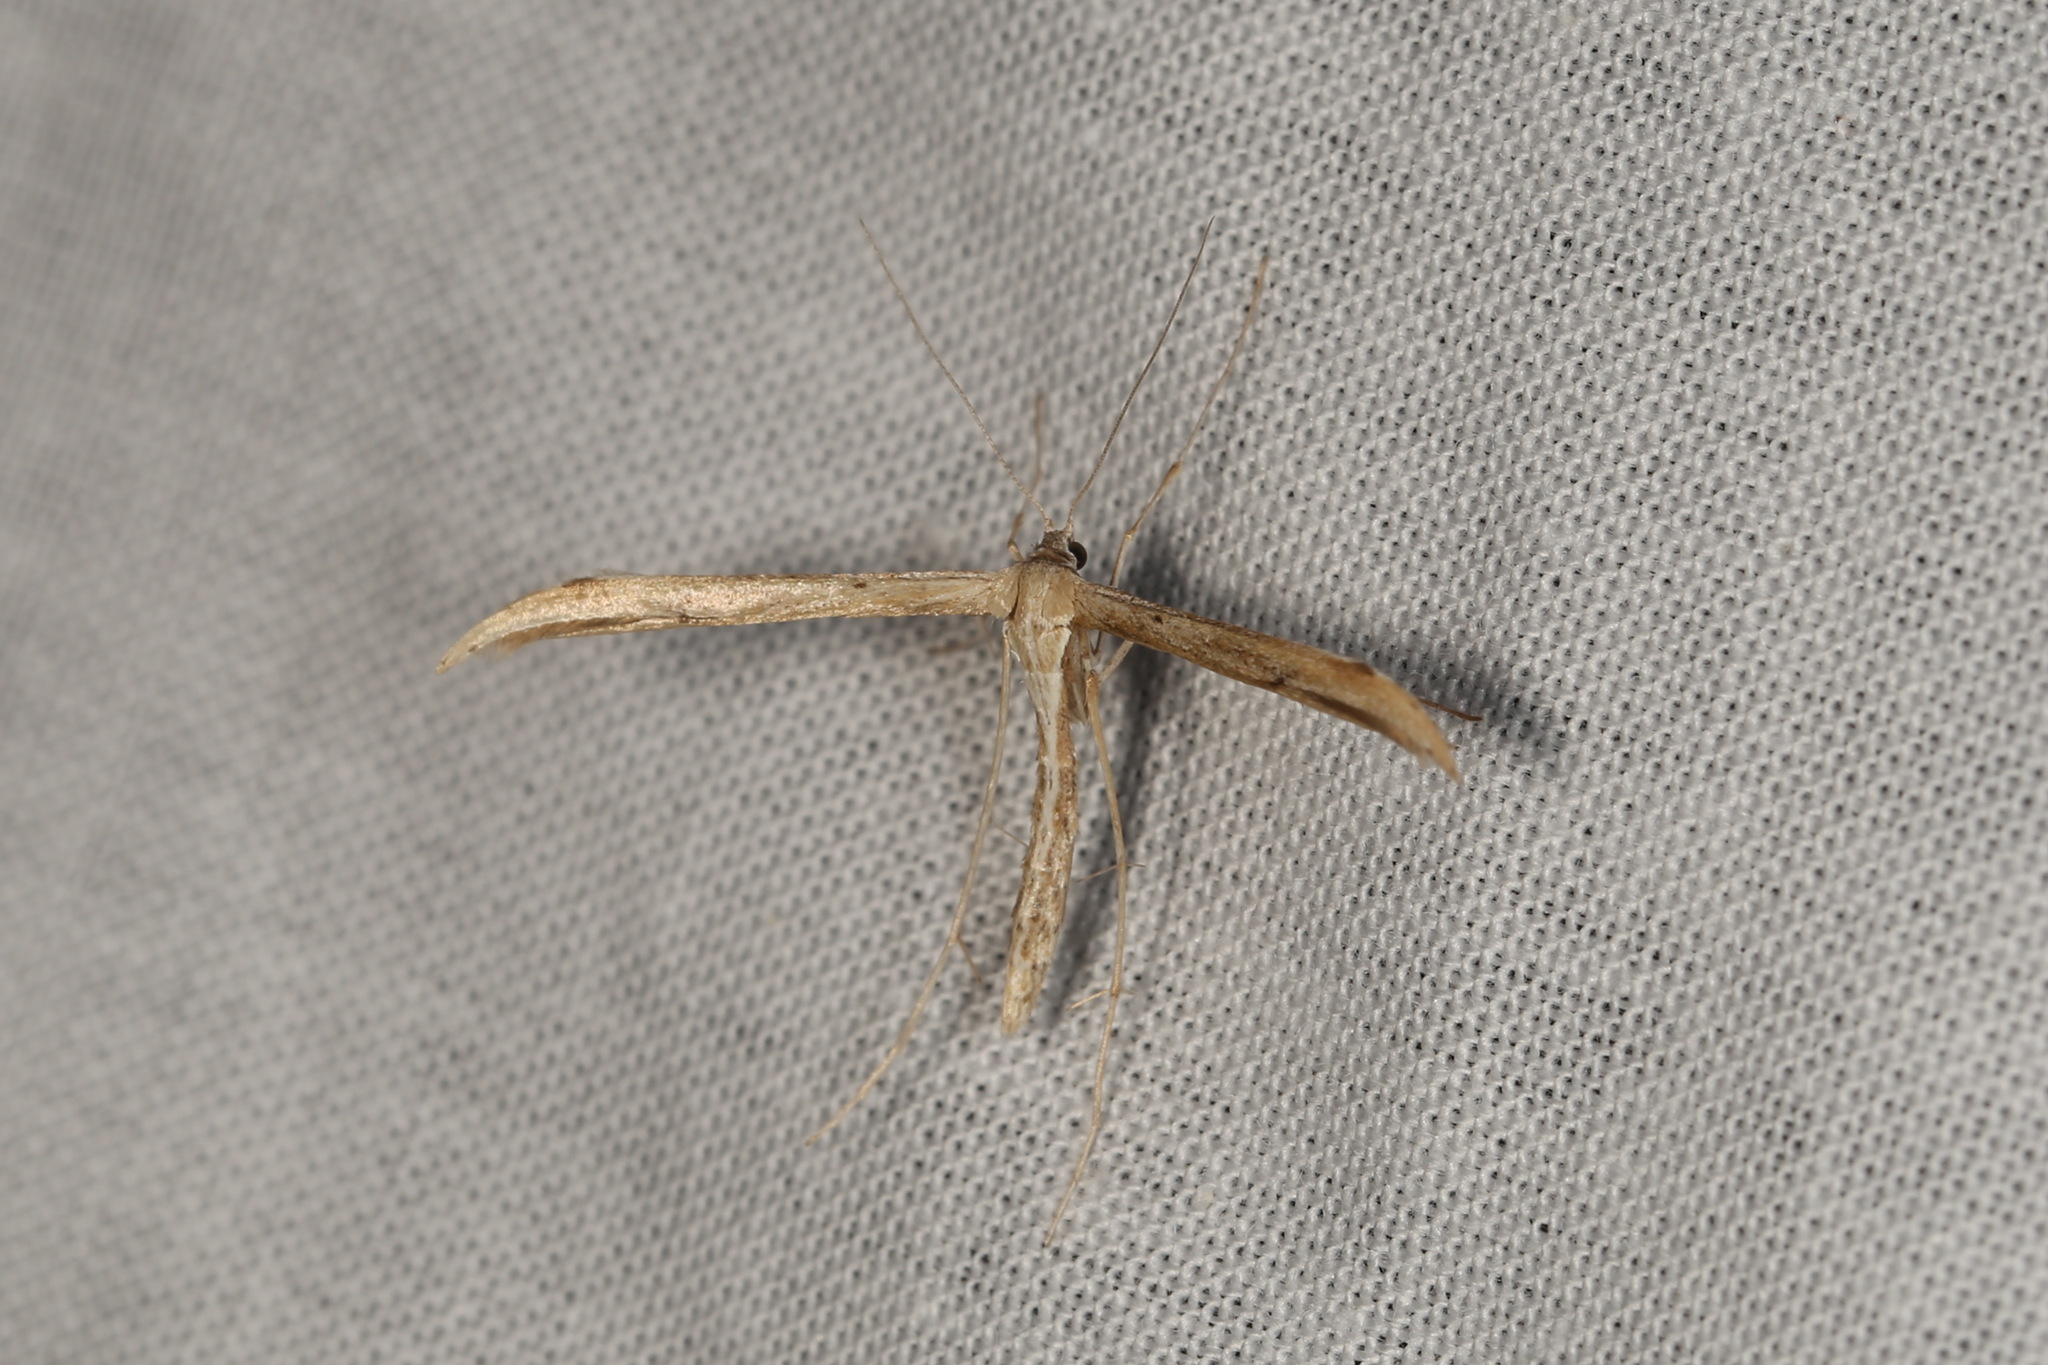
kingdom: Animalia
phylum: Arthropoda
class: Insecta
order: Lepidoptera
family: Pterophoridae
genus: Emmelina
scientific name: Emmelina monodactyla
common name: Common plume
